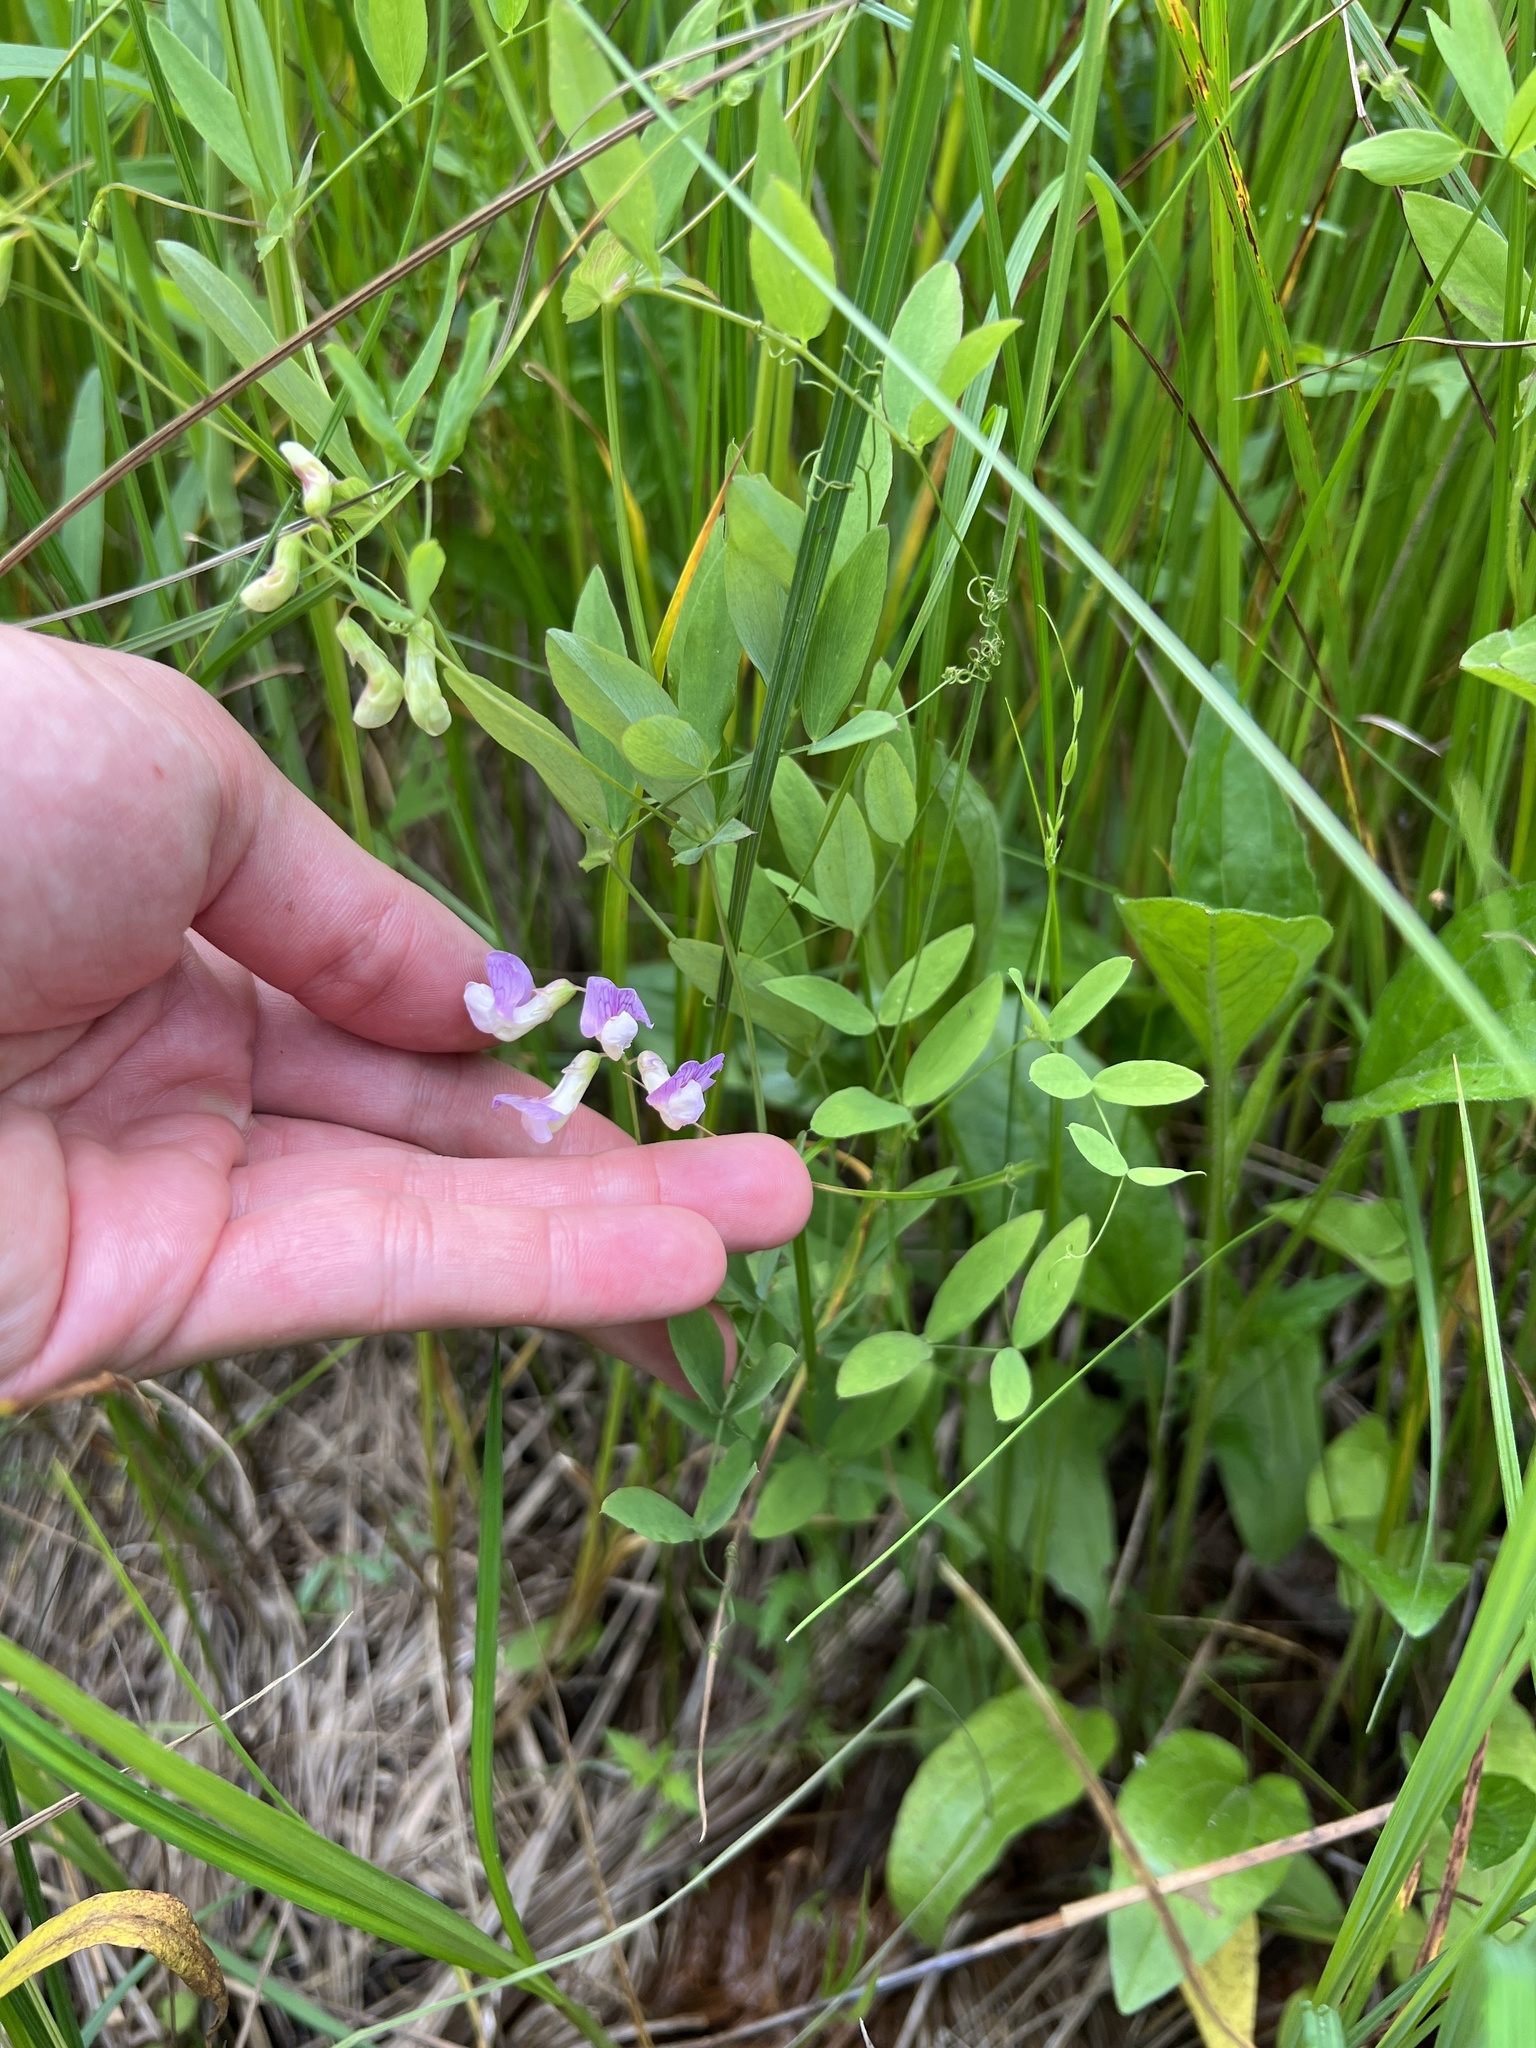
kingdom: Plantae
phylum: Tracheophyta
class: Magnoliopsida
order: Fabales
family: Fabaceae
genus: Lathyrus
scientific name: Lathyrus palustris
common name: Marsh pea
